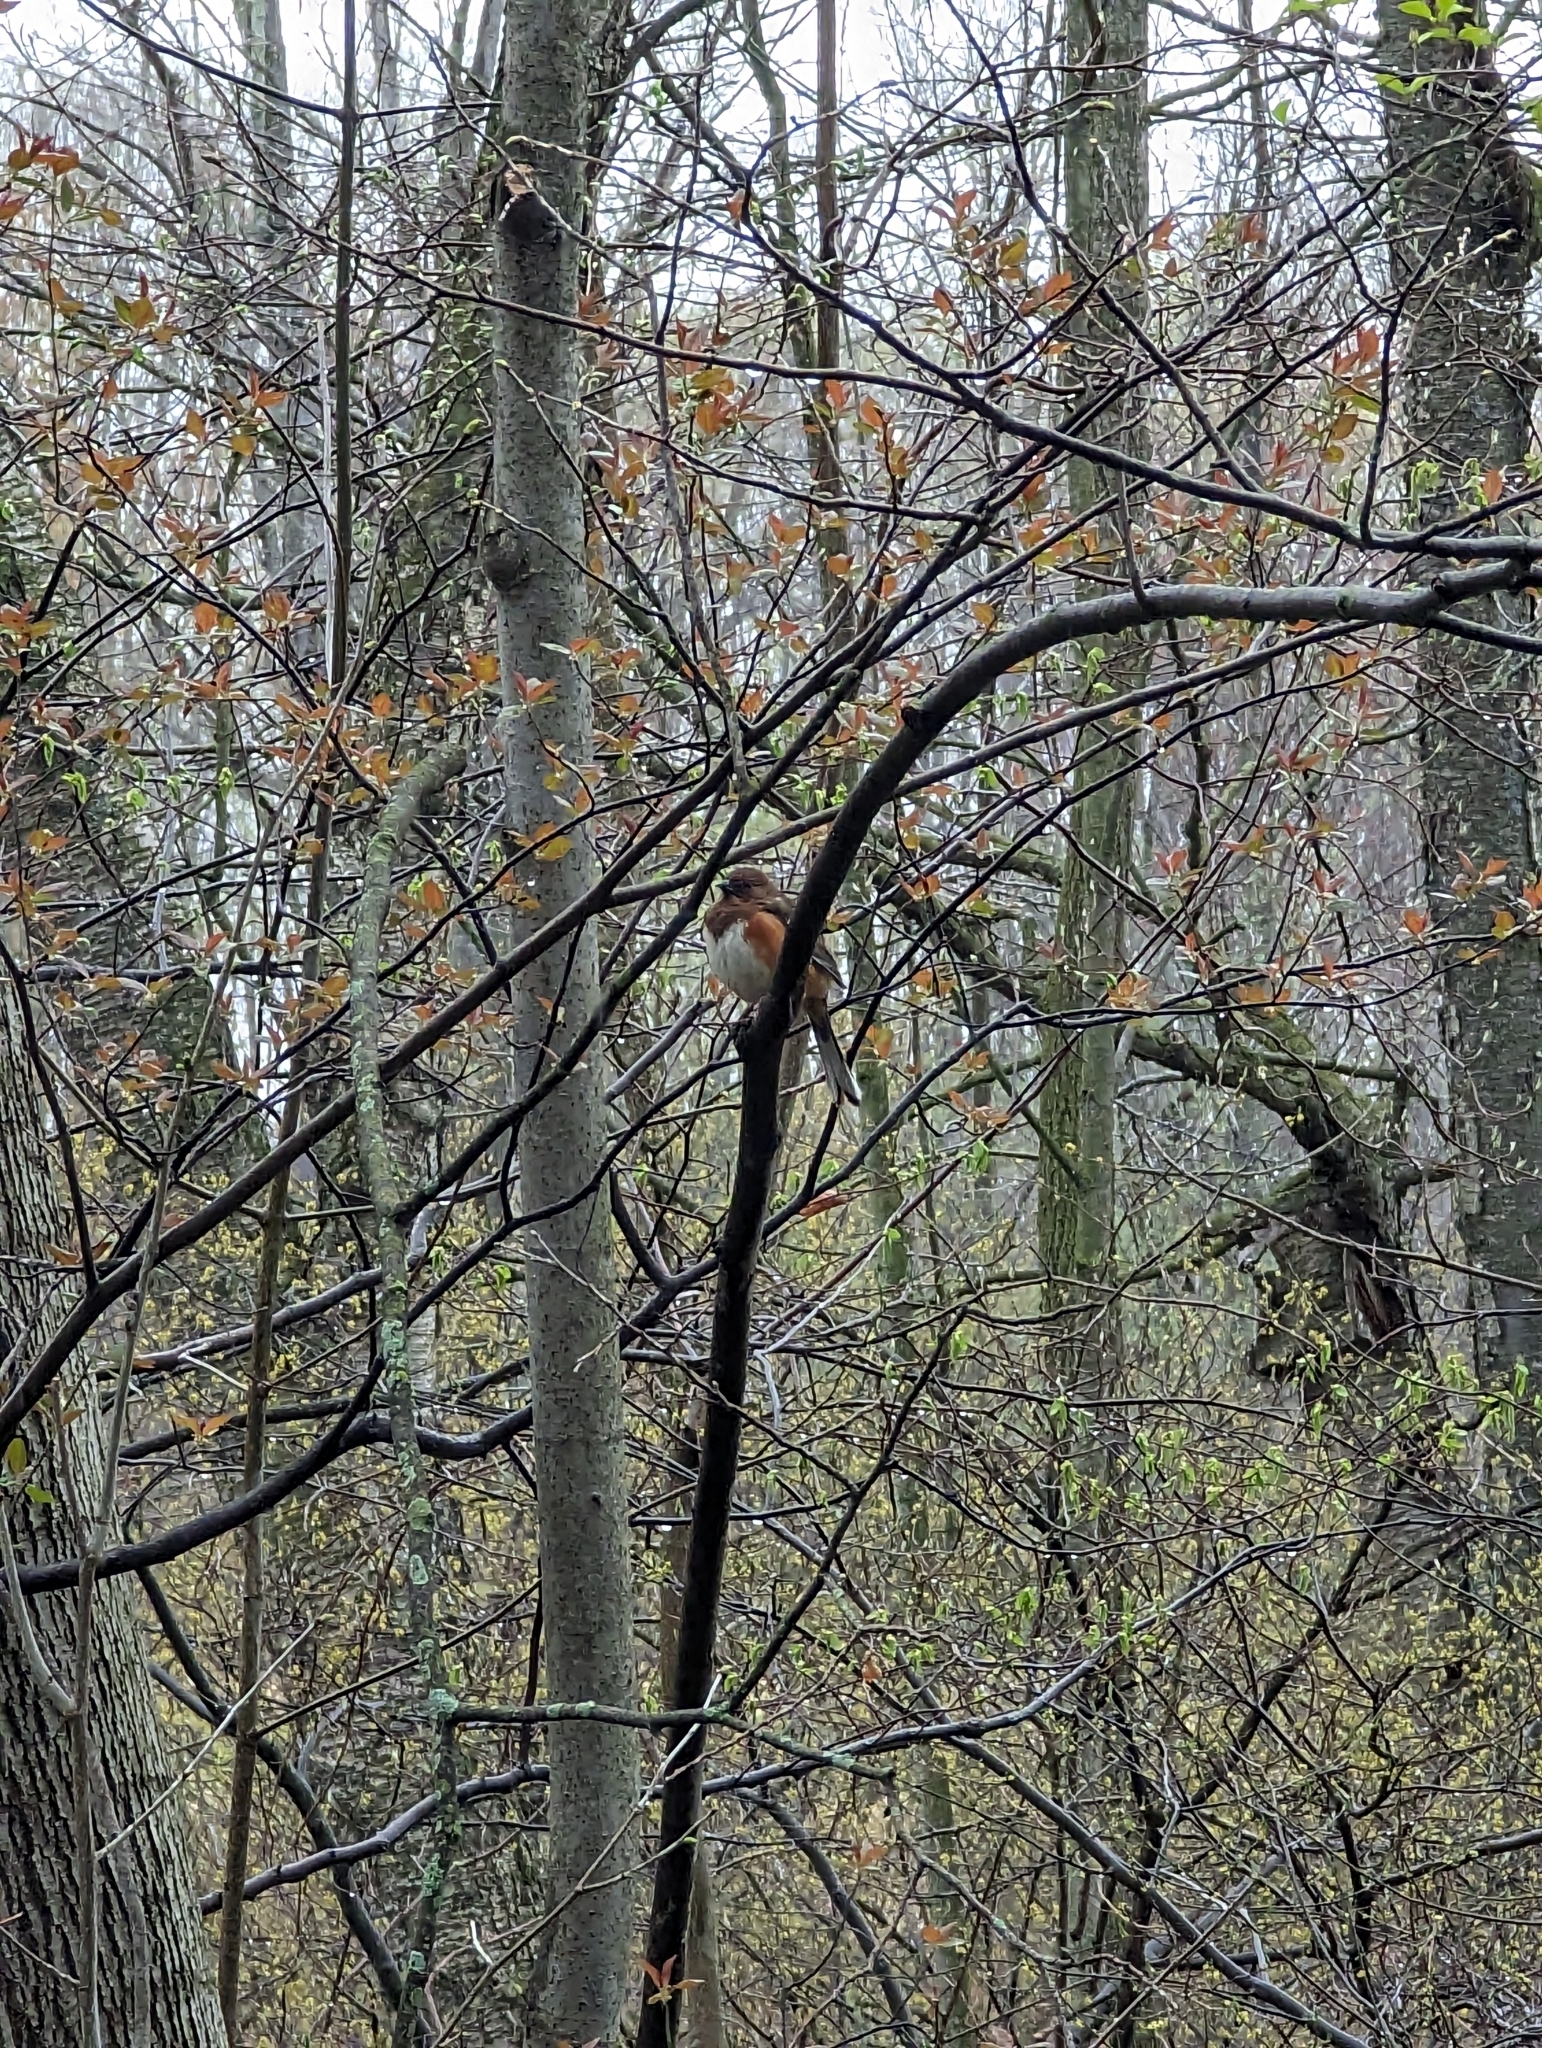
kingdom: Animalia
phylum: Chordata
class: Aves
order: Passeriformes
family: Passerellidae
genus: Pipilo
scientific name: Pipilo erythrophthalmus
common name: Eastern towhee
